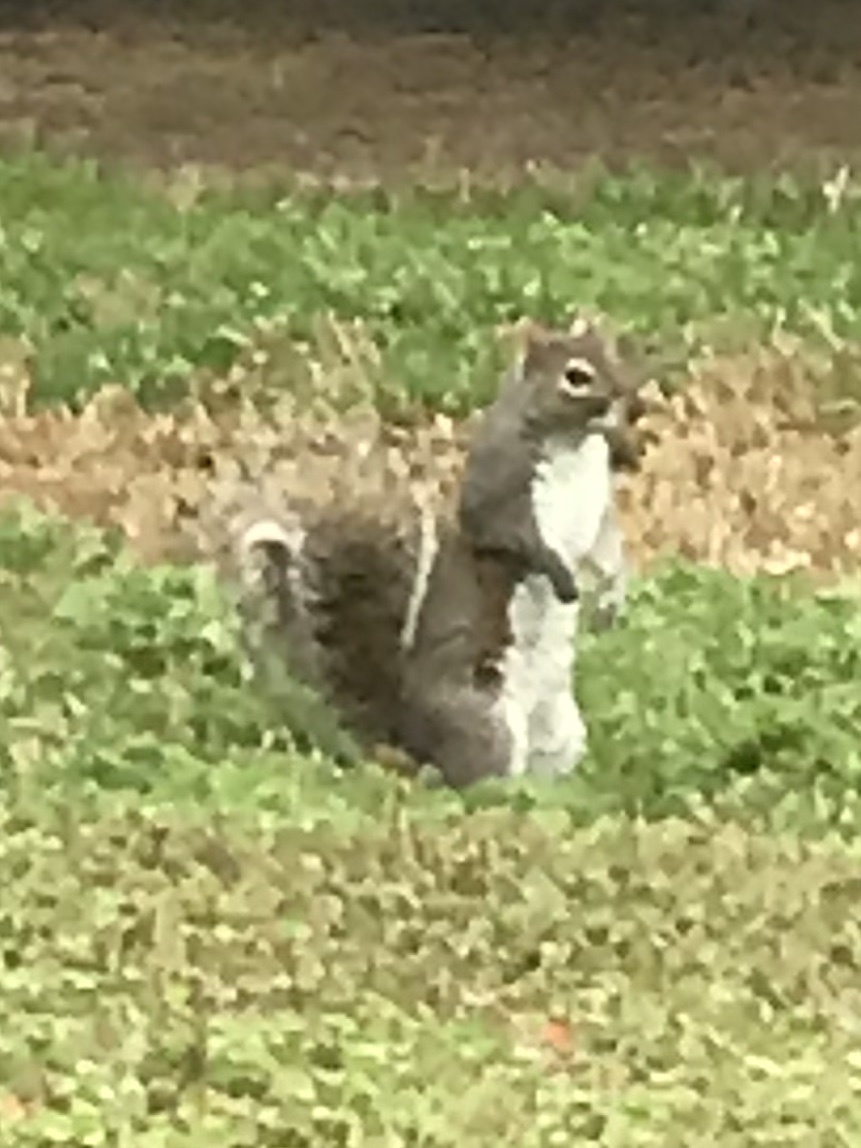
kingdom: Animalia
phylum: Chordata
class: Mammalia
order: Rodentia
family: Sciuridae
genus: Sciurus
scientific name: Sciurus carolinensis
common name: Eastern gray squirrel
